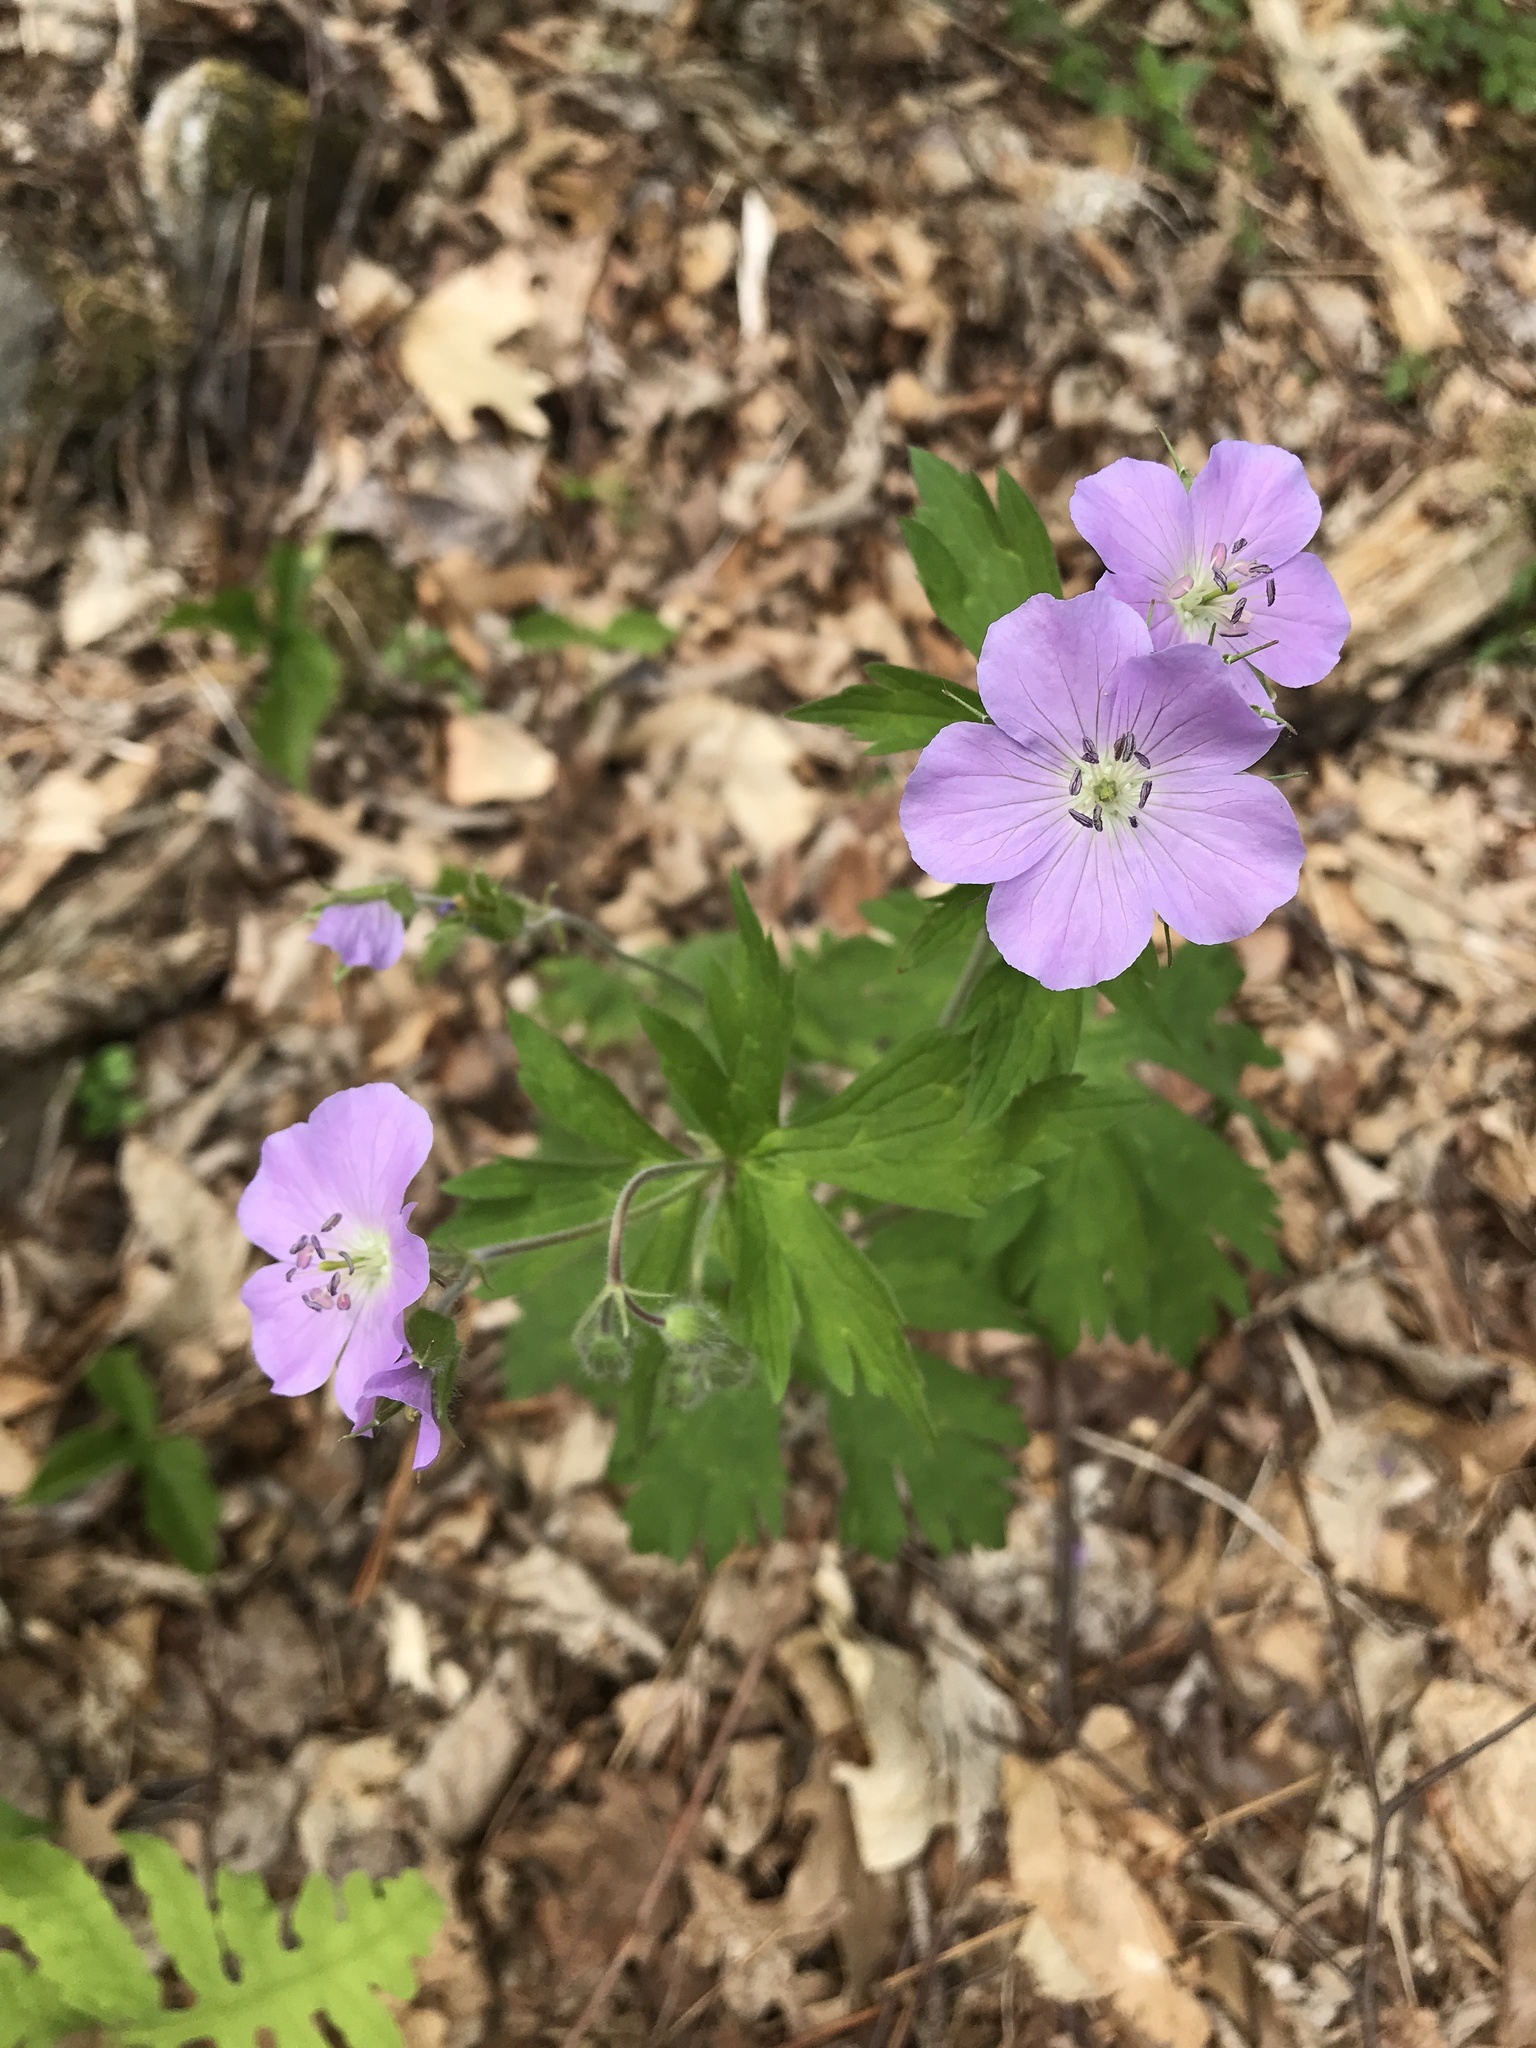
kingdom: Plantae
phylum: Tracheophyta
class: Magnoliopsida
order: Geraniales
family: Geraniaceae
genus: Geranium
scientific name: Geranium maculatum
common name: Spotted geranium
